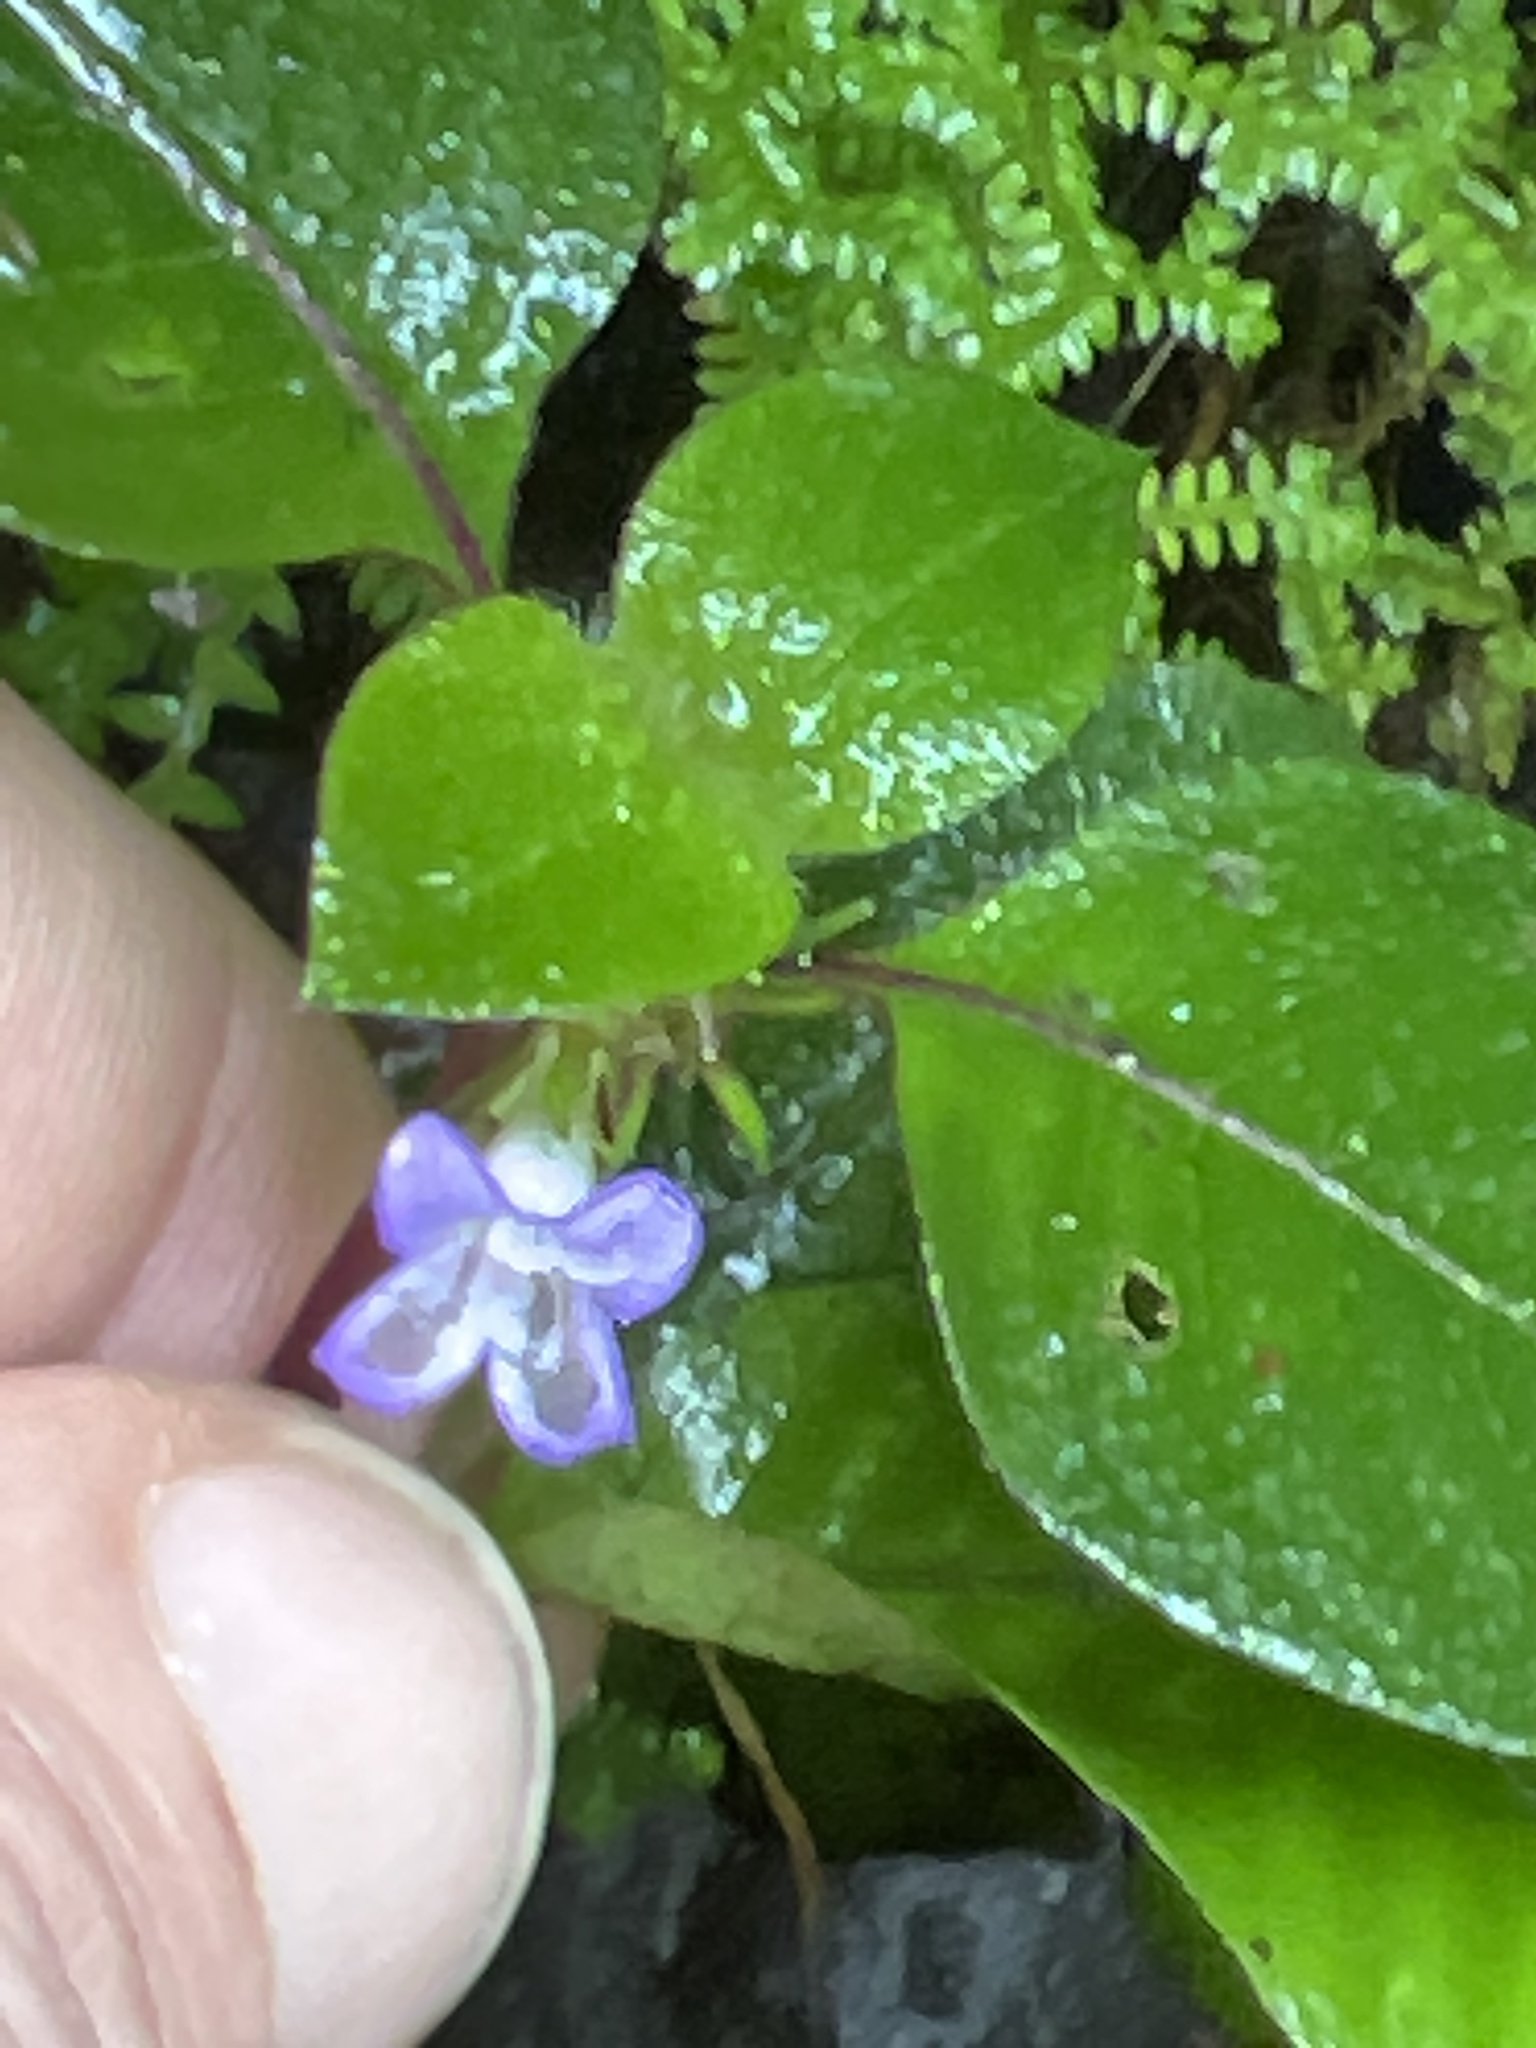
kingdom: Plantae
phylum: Tracheophyta
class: Magnoliopsida
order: Gentianales
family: Rubiaceae
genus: Coccocypselum
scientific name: Coccocypselum hirsutum
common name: Yerba de guava
